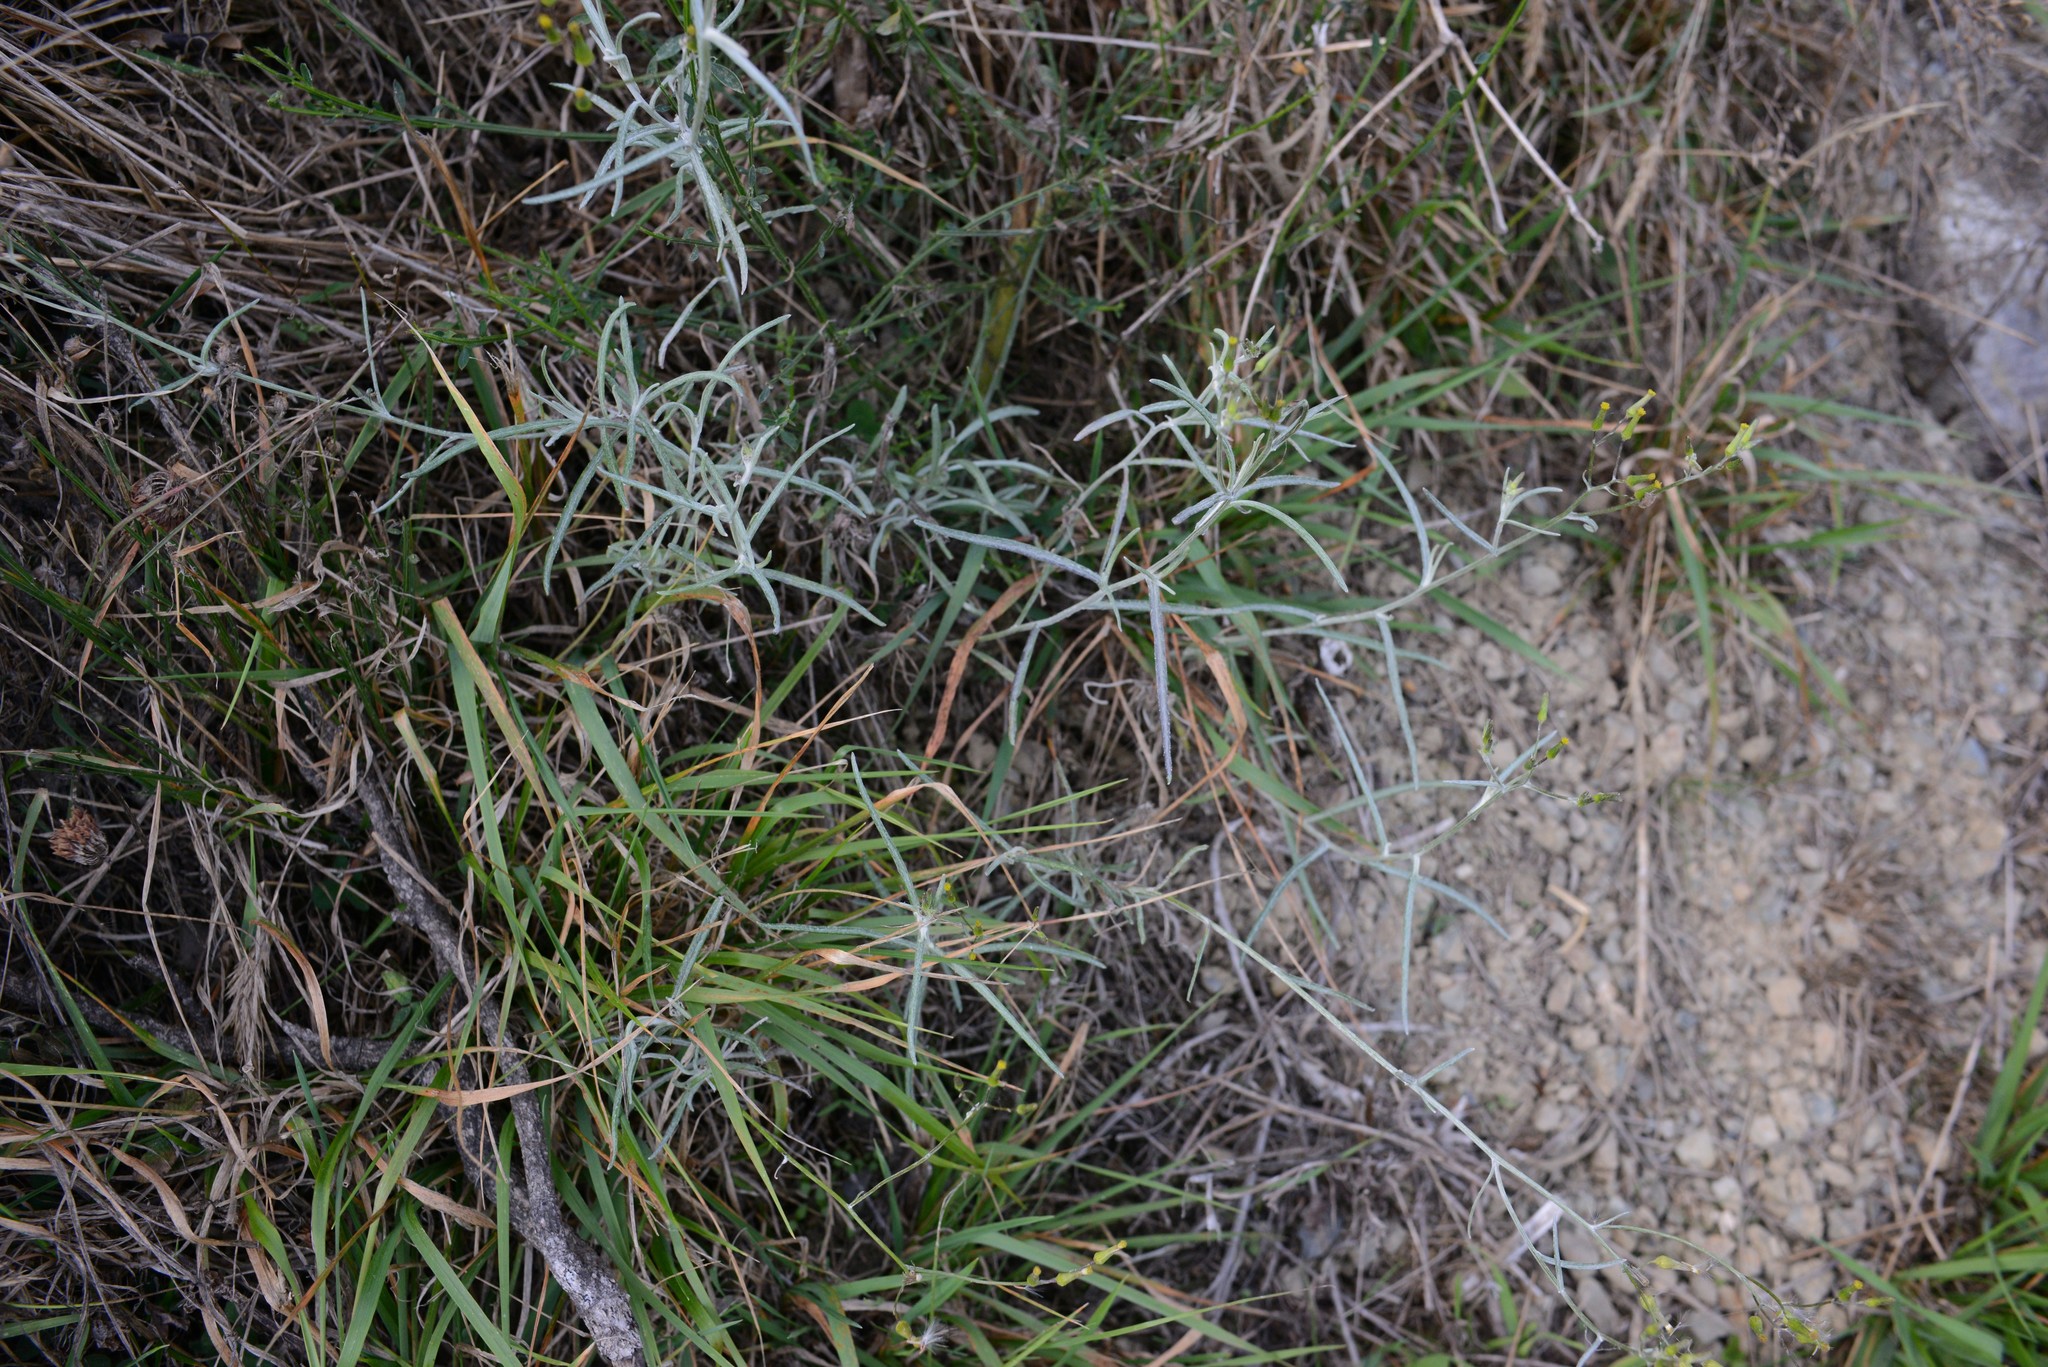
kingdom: Plantae
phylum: Tracheophyta
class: Magnoliopsida
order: Asterales
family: Asteraceae
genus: Senecio
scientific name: Senecio quadridentatus
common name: Cotton fireweed
